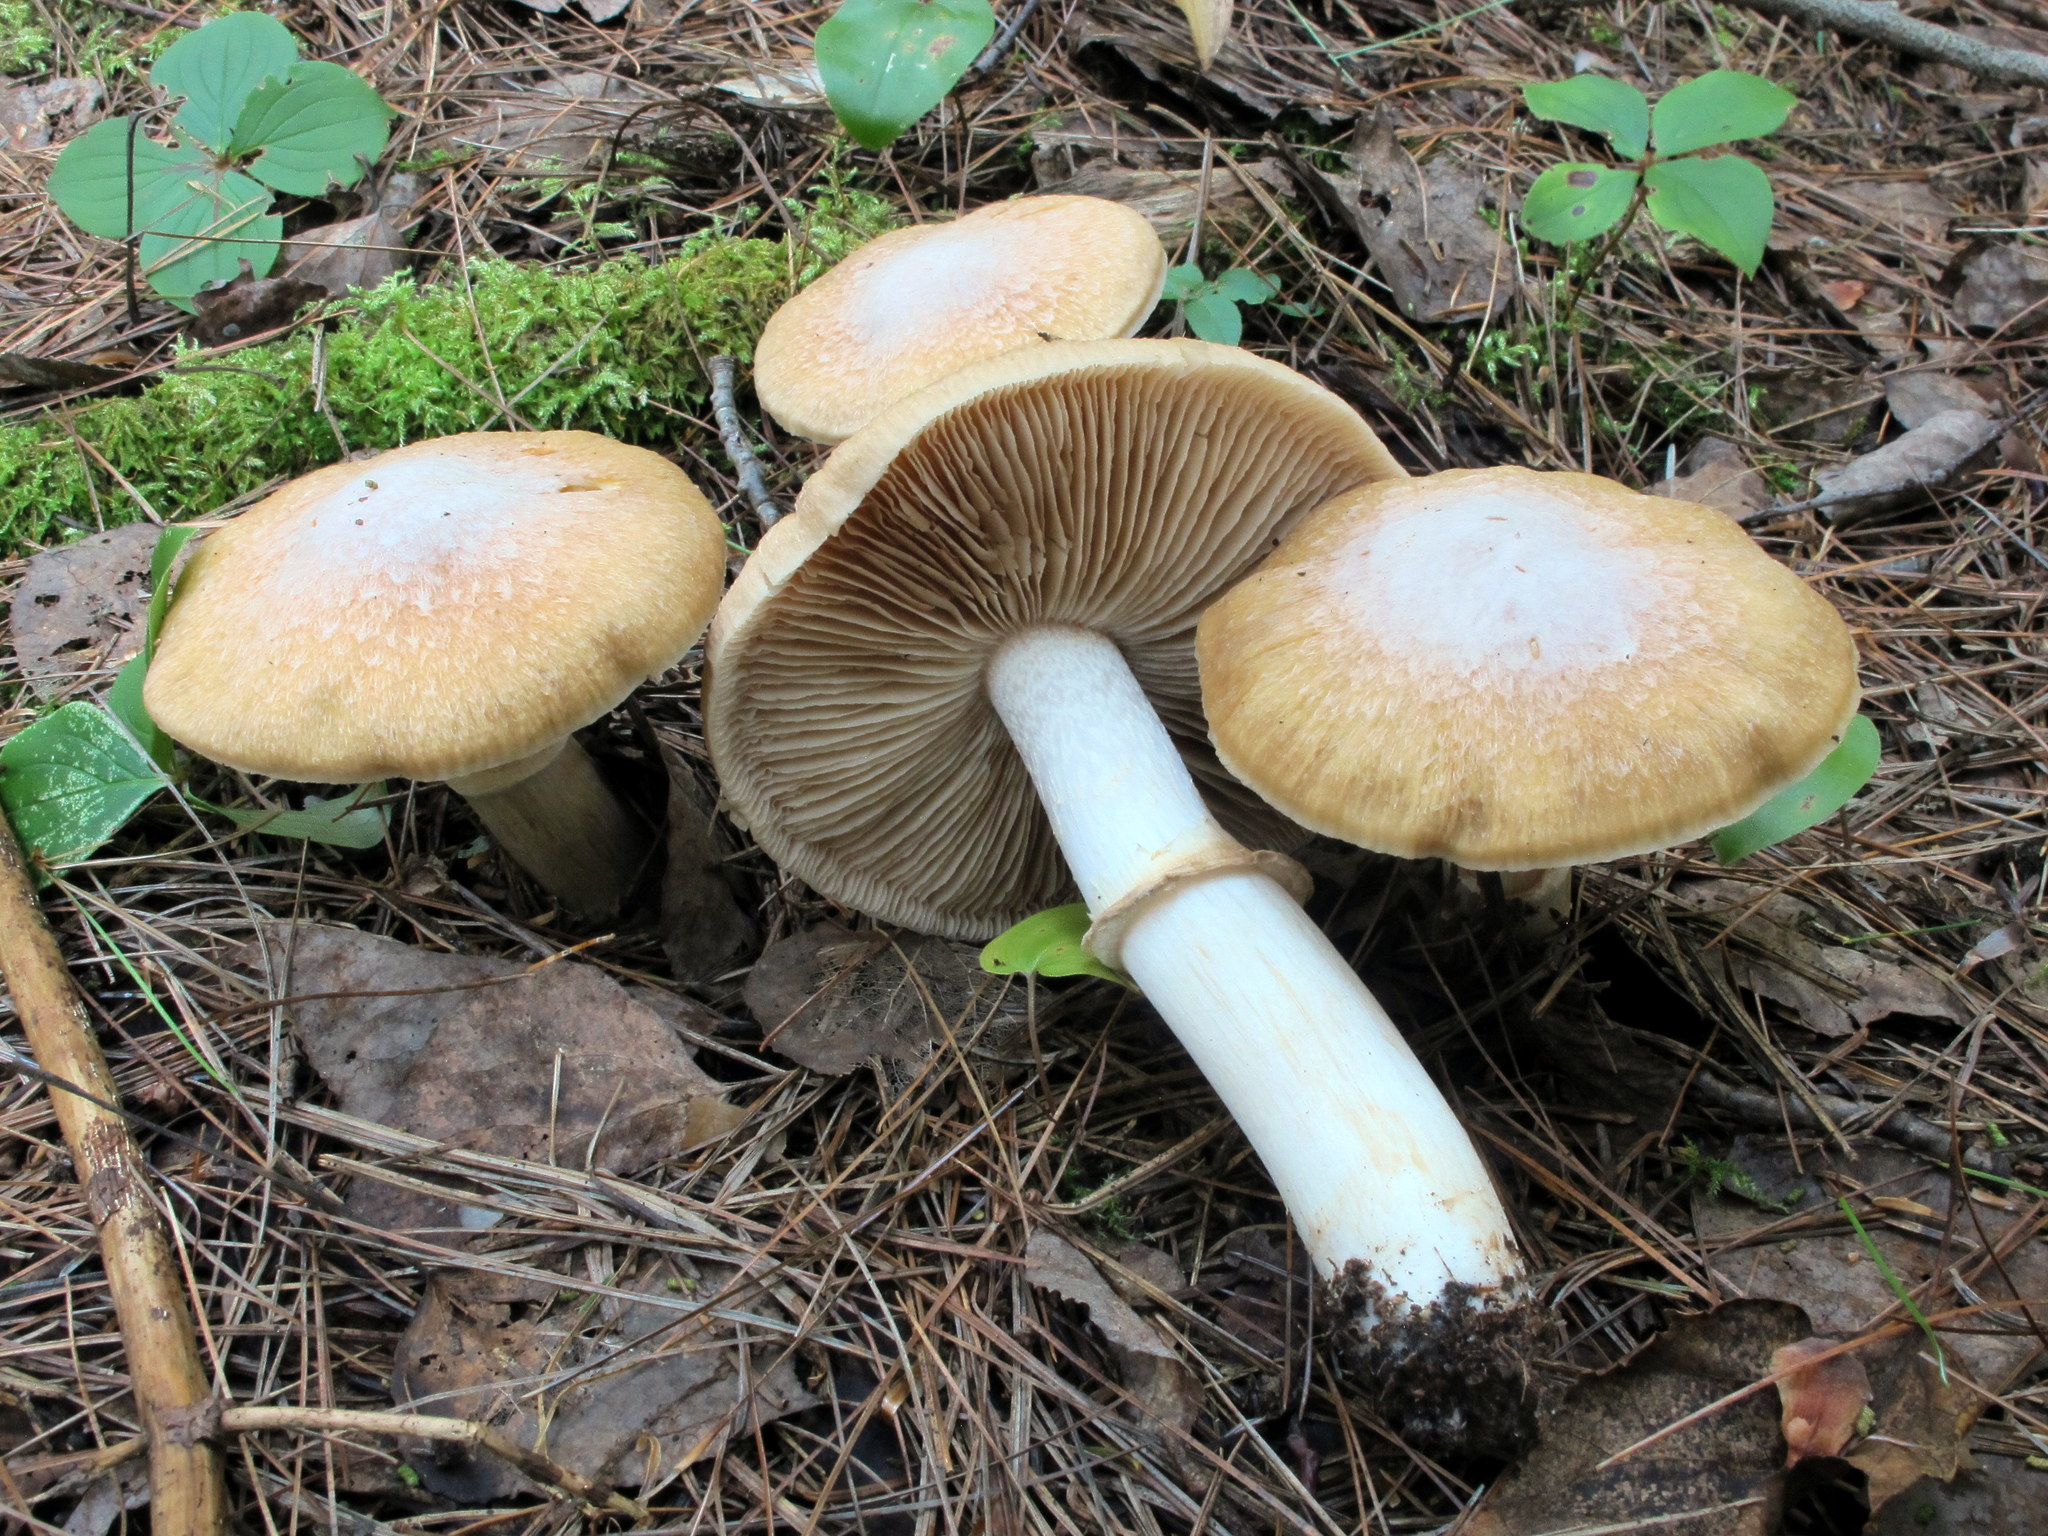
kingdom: Fungi
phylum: Basidiomycota
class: Agaricomycetes
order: Agaricales
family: Cortinariaceae
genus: Cortinarius
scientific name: Cortinarius caperatus
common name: The gypsy
